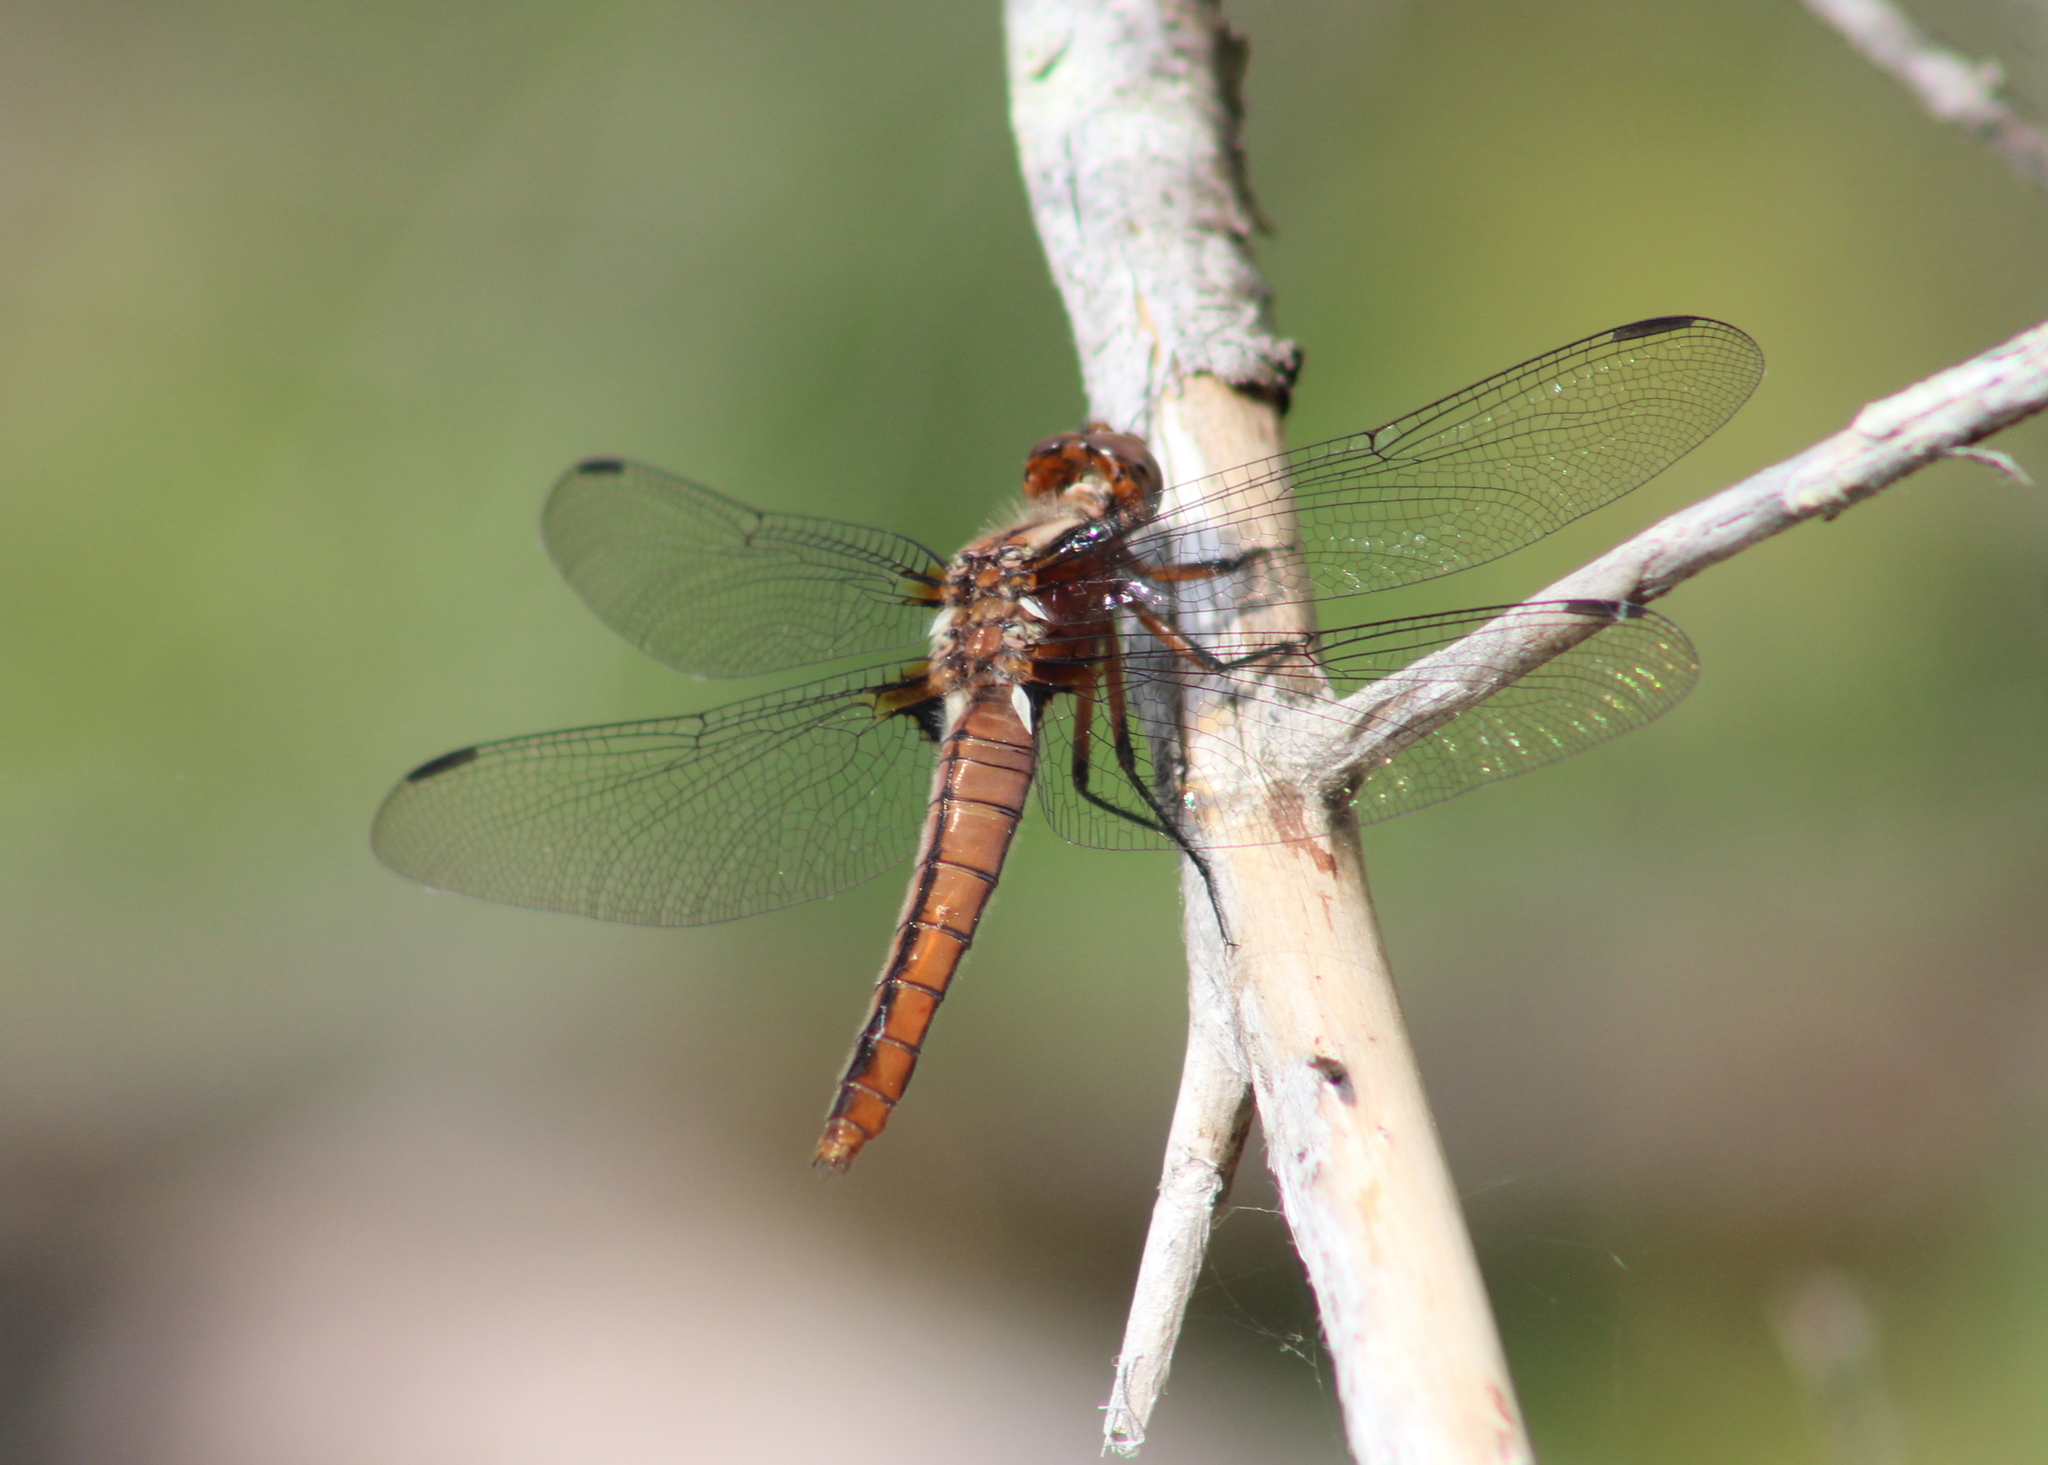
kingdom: Animalia
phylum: Arthropoda
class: Insecta
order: Odonata
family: Libellulidae
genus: Ladona
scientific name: Ladona julia
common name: Chalk-fronted corporal
